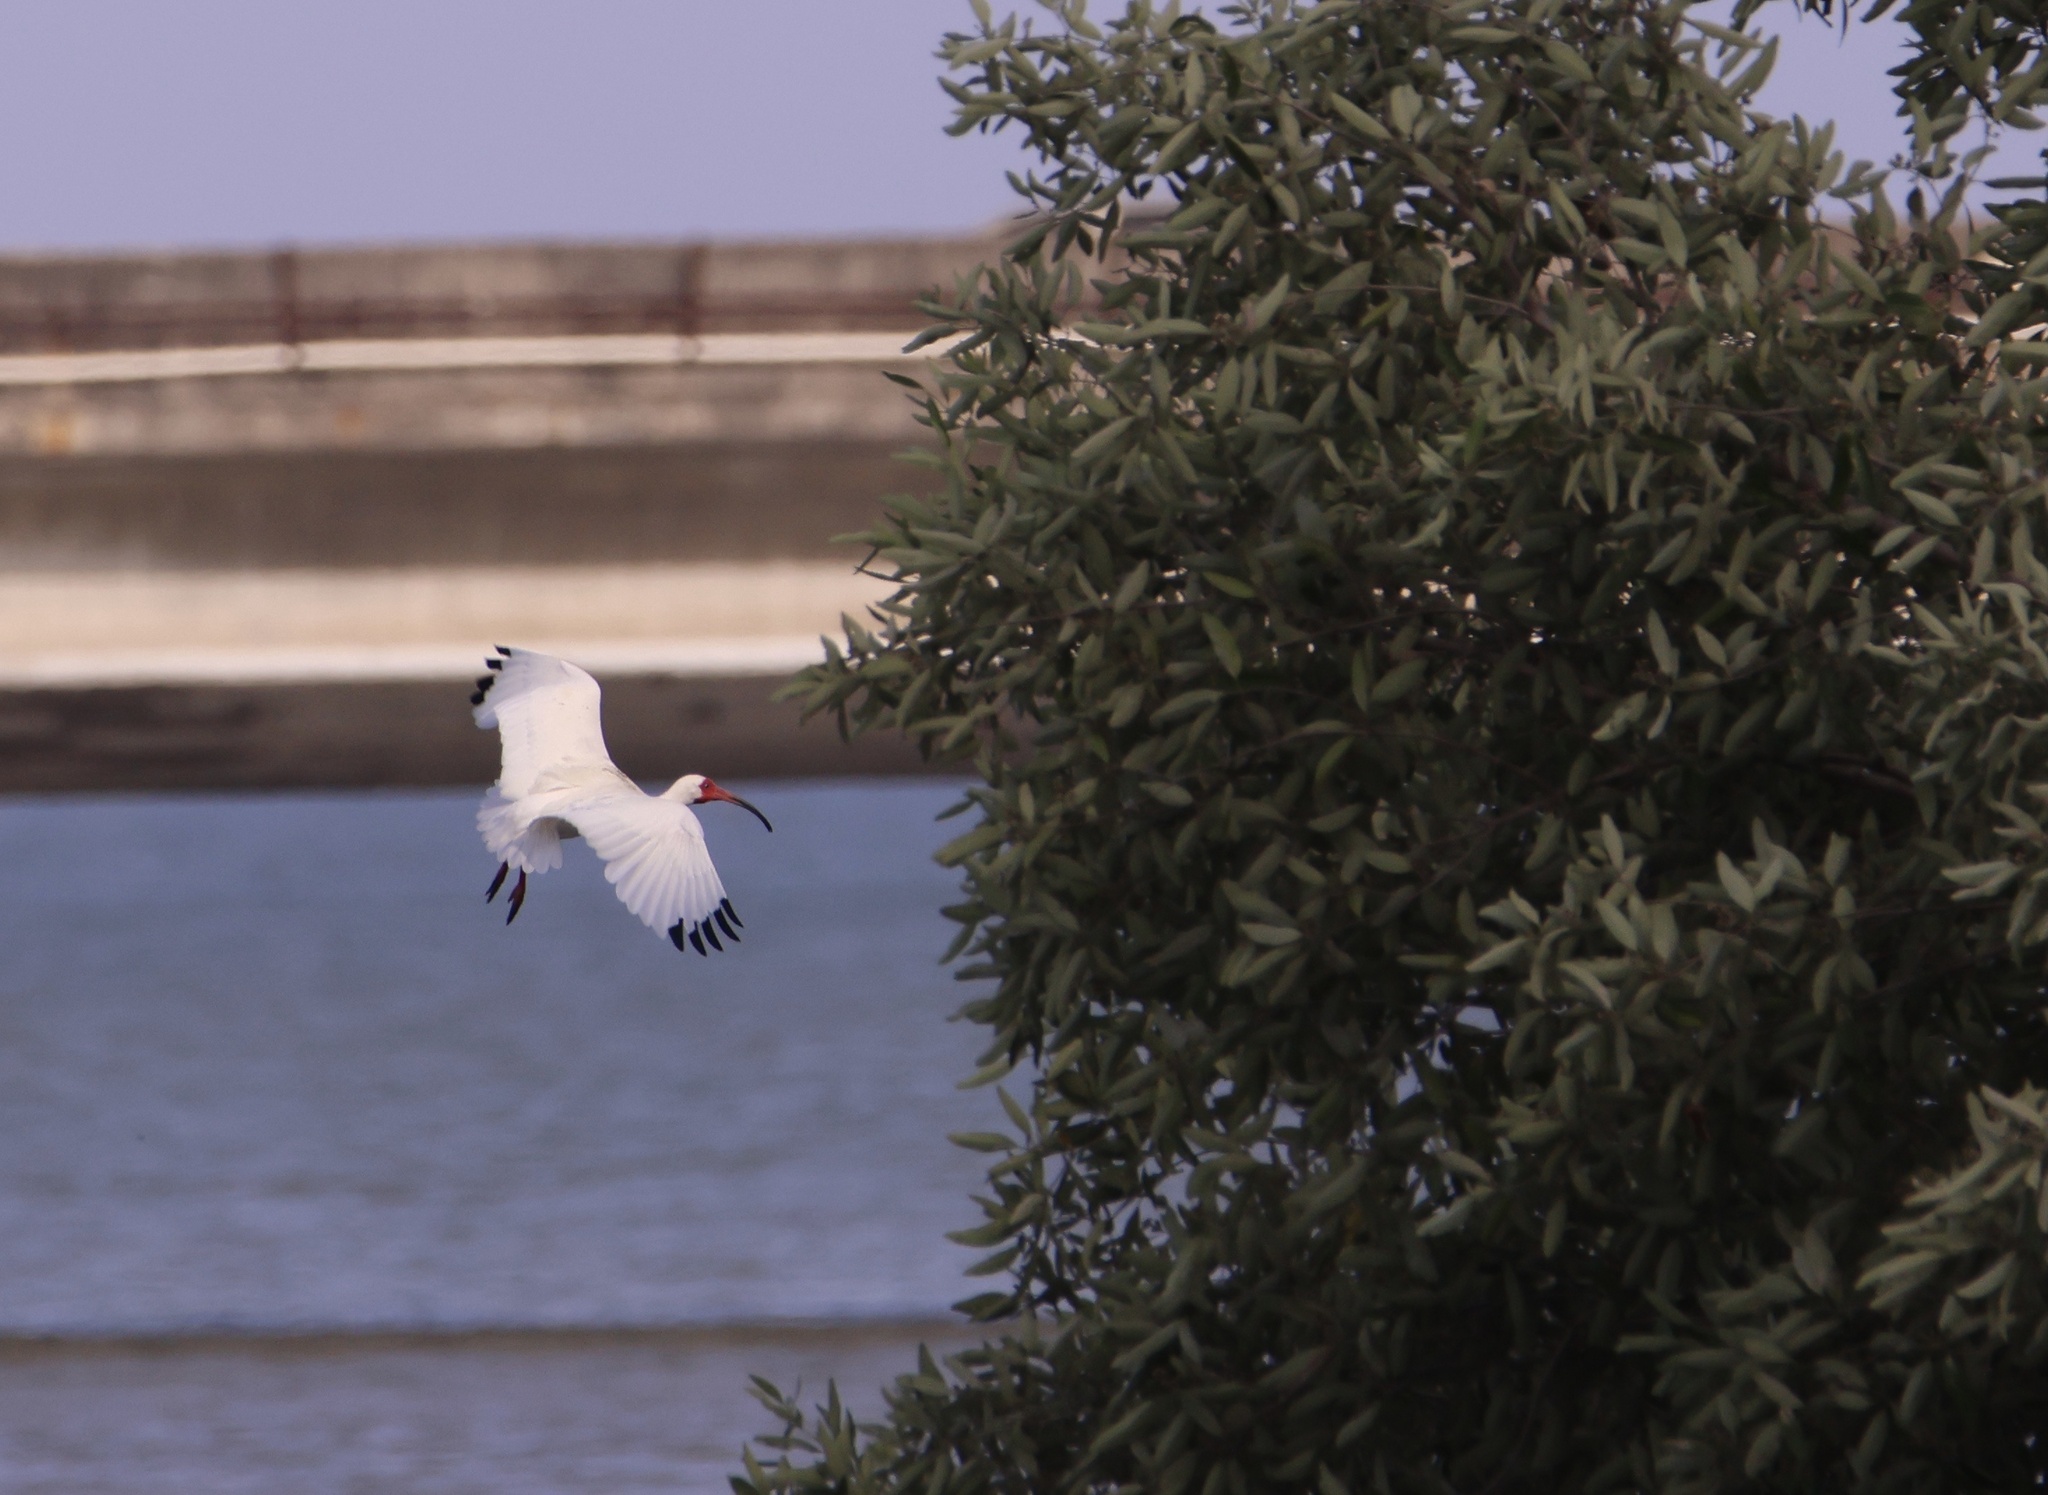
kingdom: Animalia
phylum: Chordata
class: Aves
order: Pelecaniformes
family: Threskiornithidae
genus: Eudocimus
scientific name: Eudocimus albus
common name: White ibis
